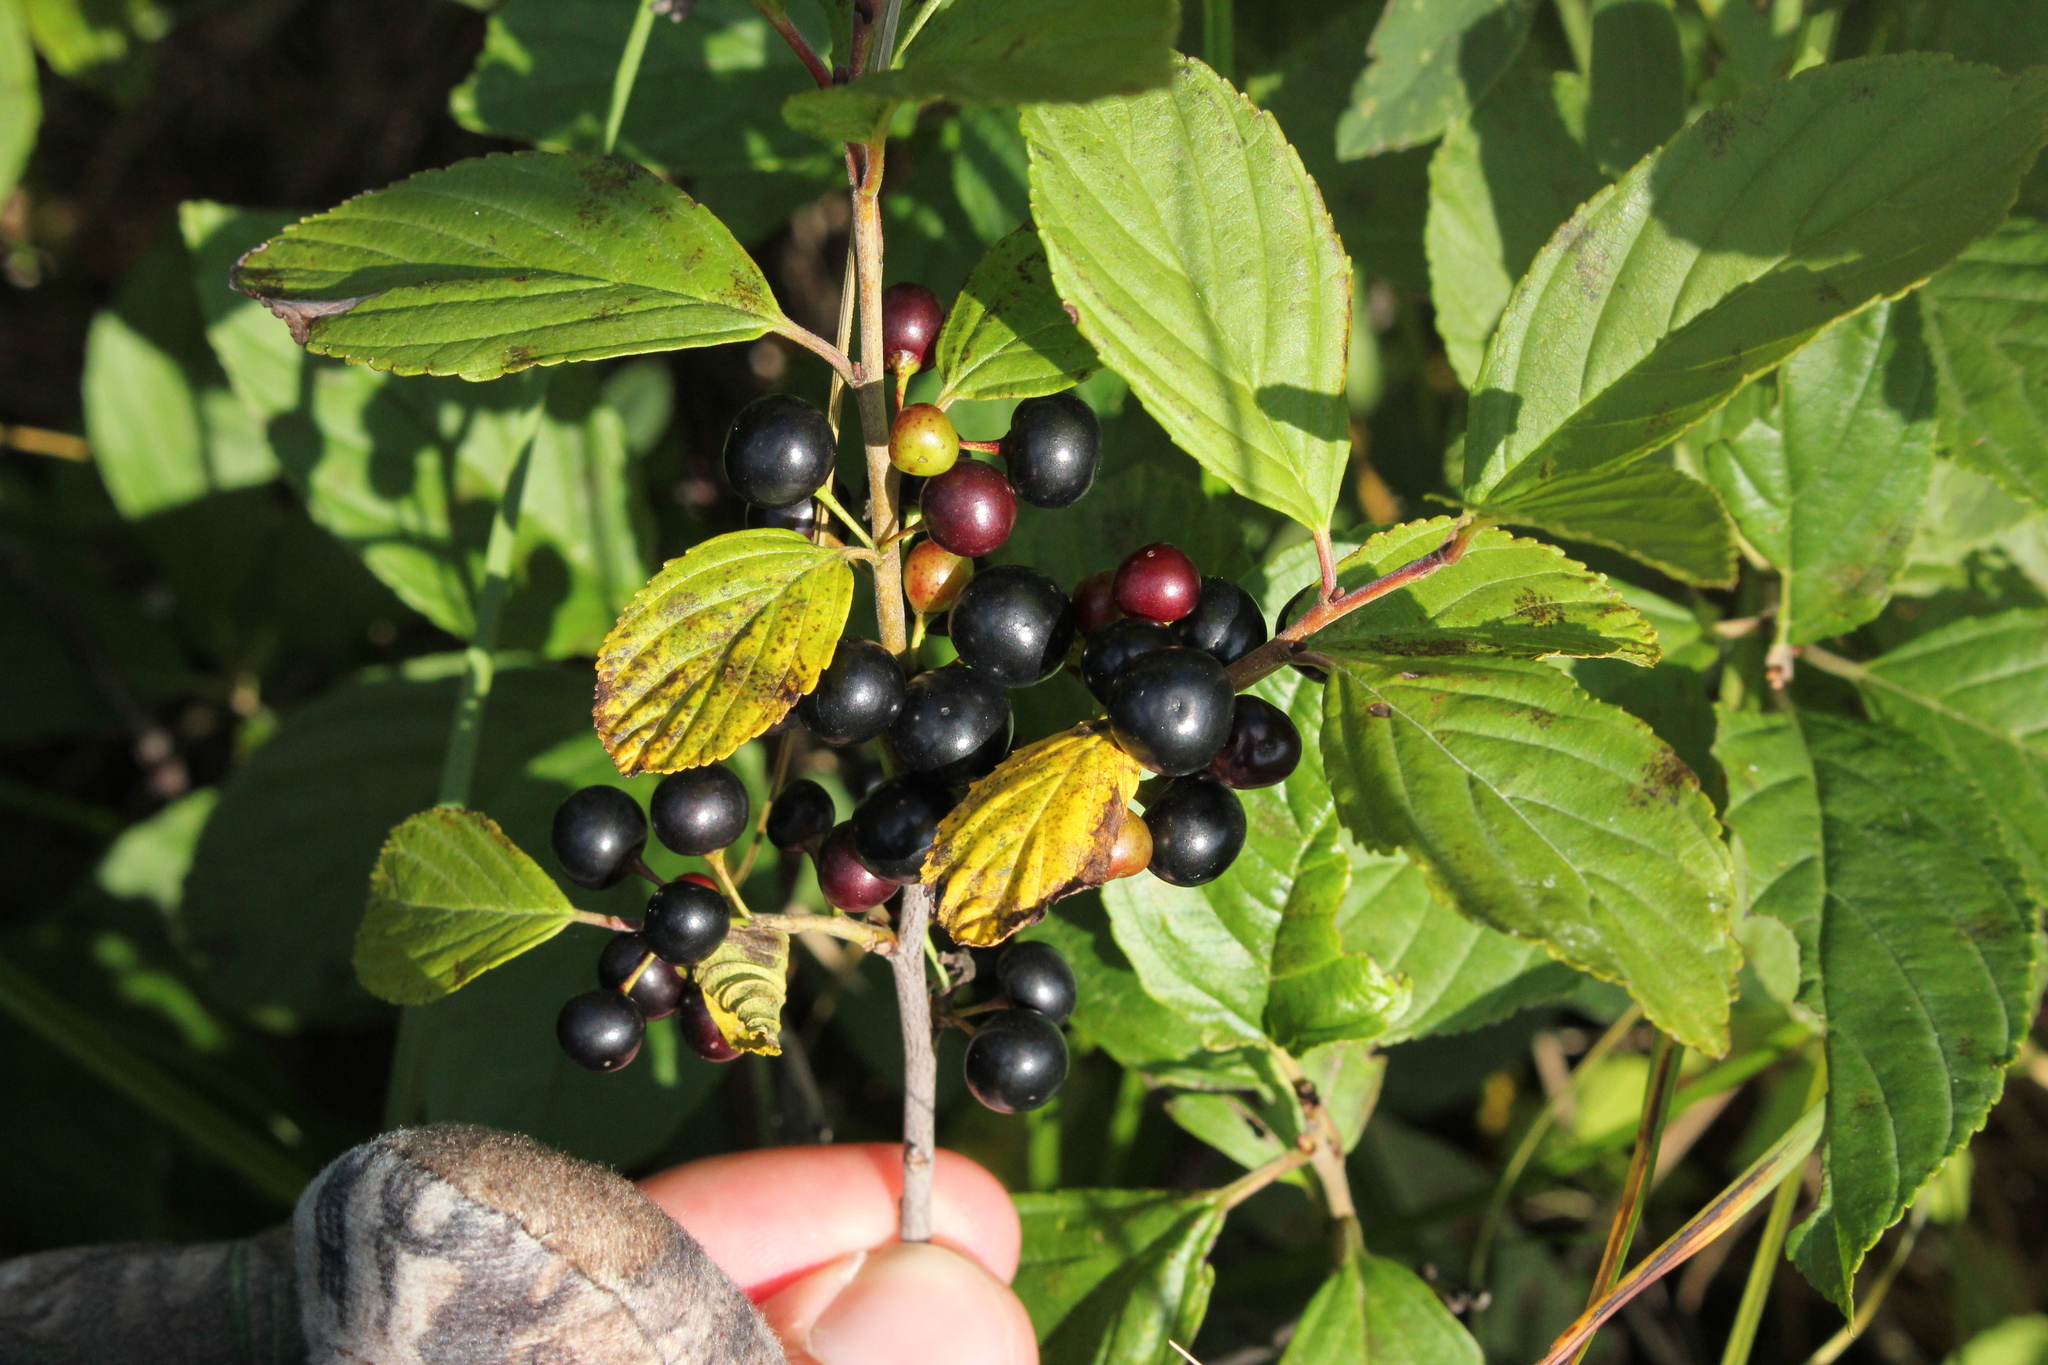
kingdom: Plantae
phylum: Tracheophyta
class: Magnoliopsida
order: Rosales
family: Rhamnaceae
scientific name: Rhamnaceae
